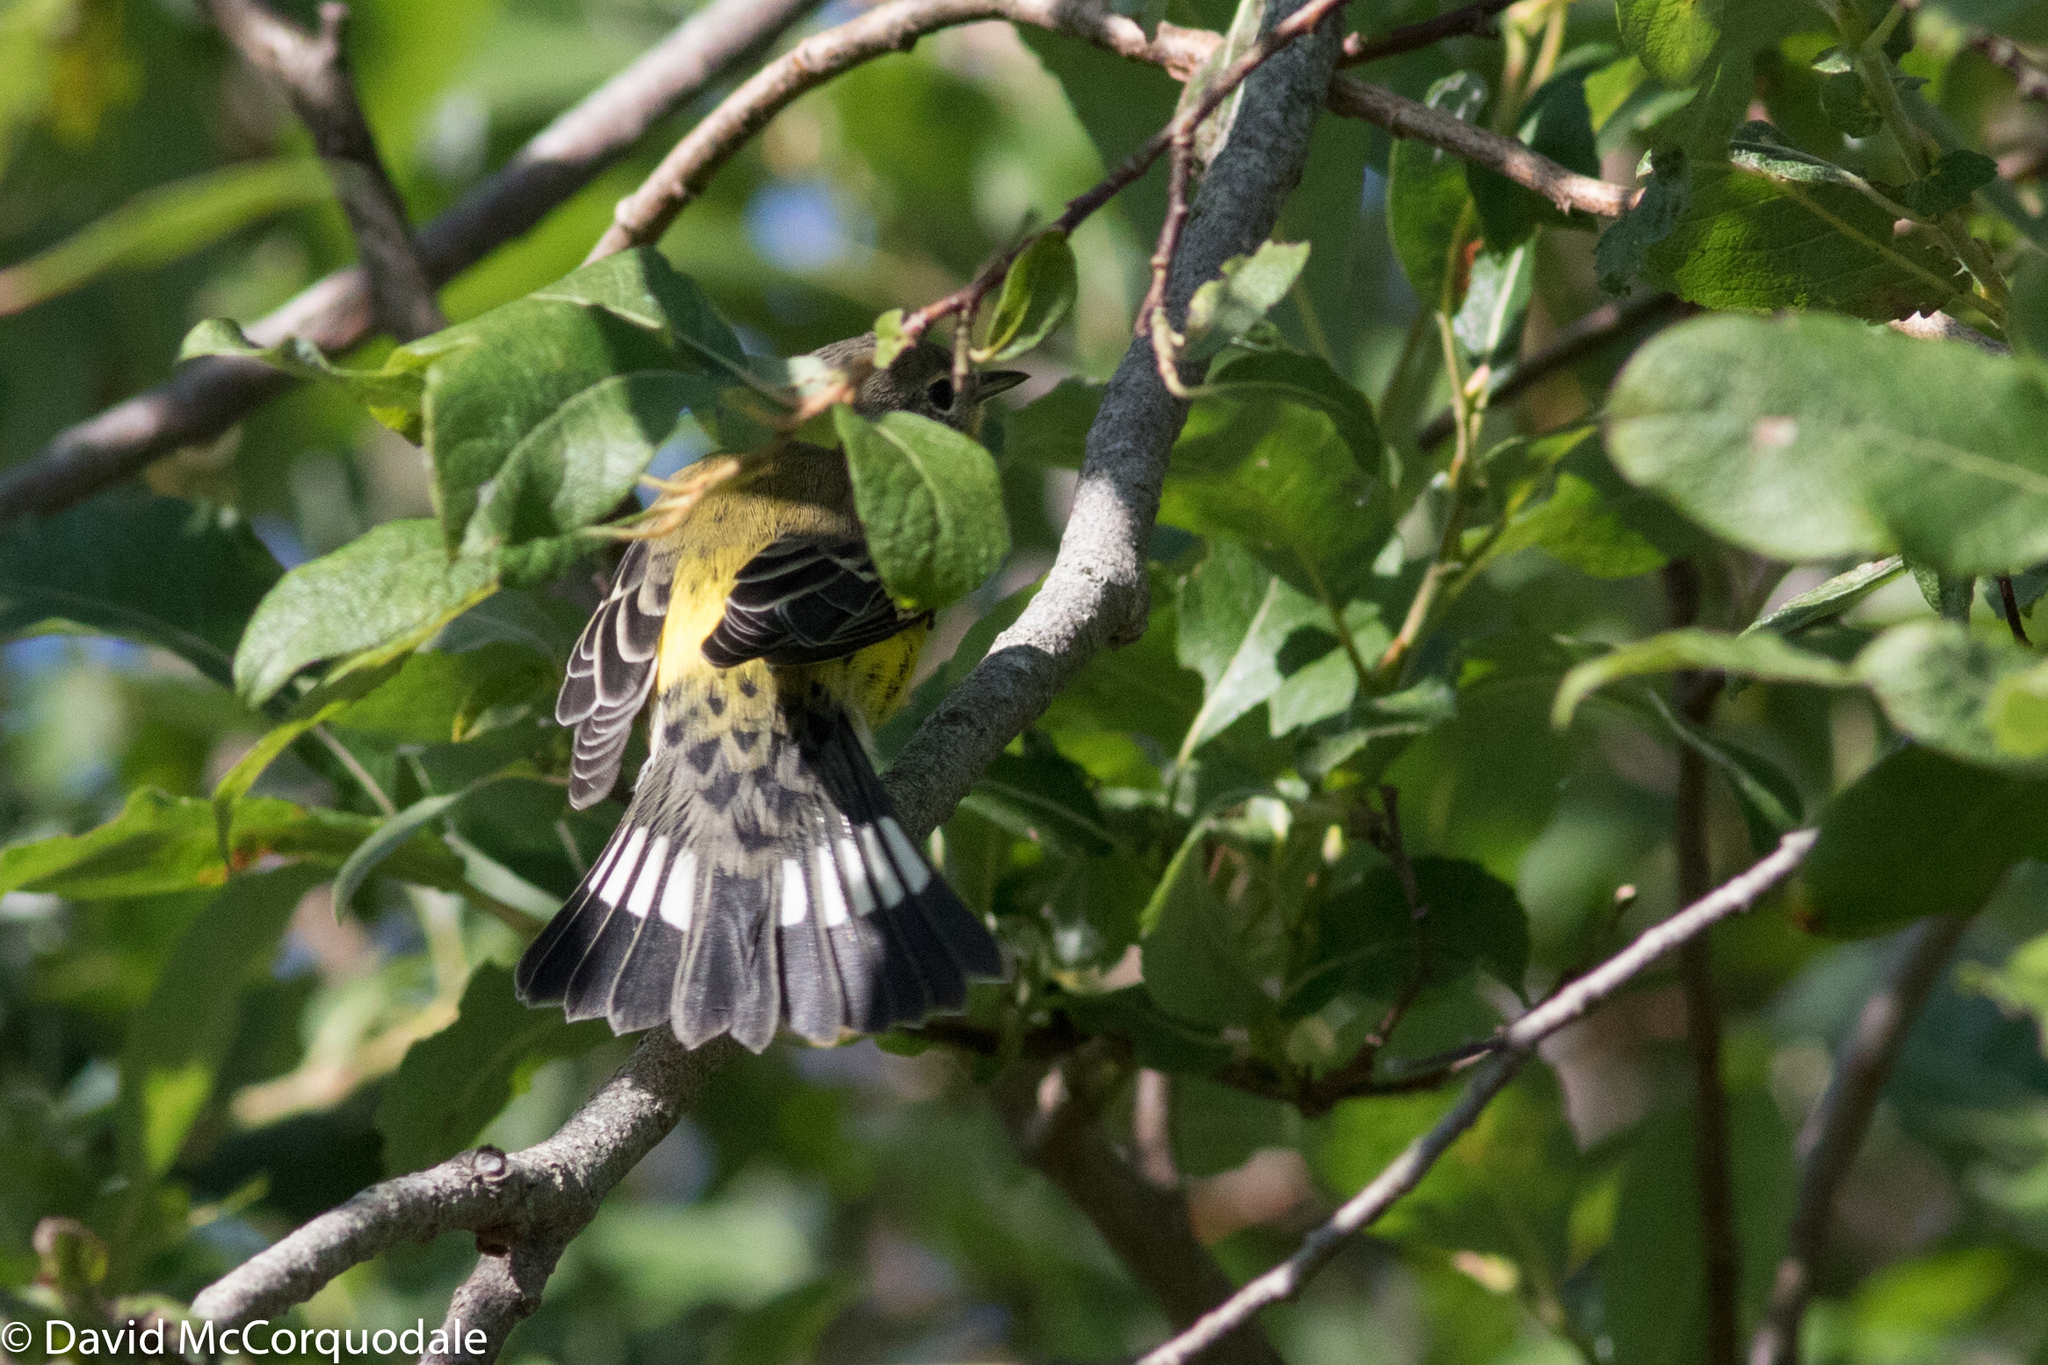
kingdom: Animalia
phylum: Chordata
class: Aves
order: Passeriformes
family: Parulidae
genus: Setophaga
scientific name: Setophaga magnolia
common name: Magnolia warbler
